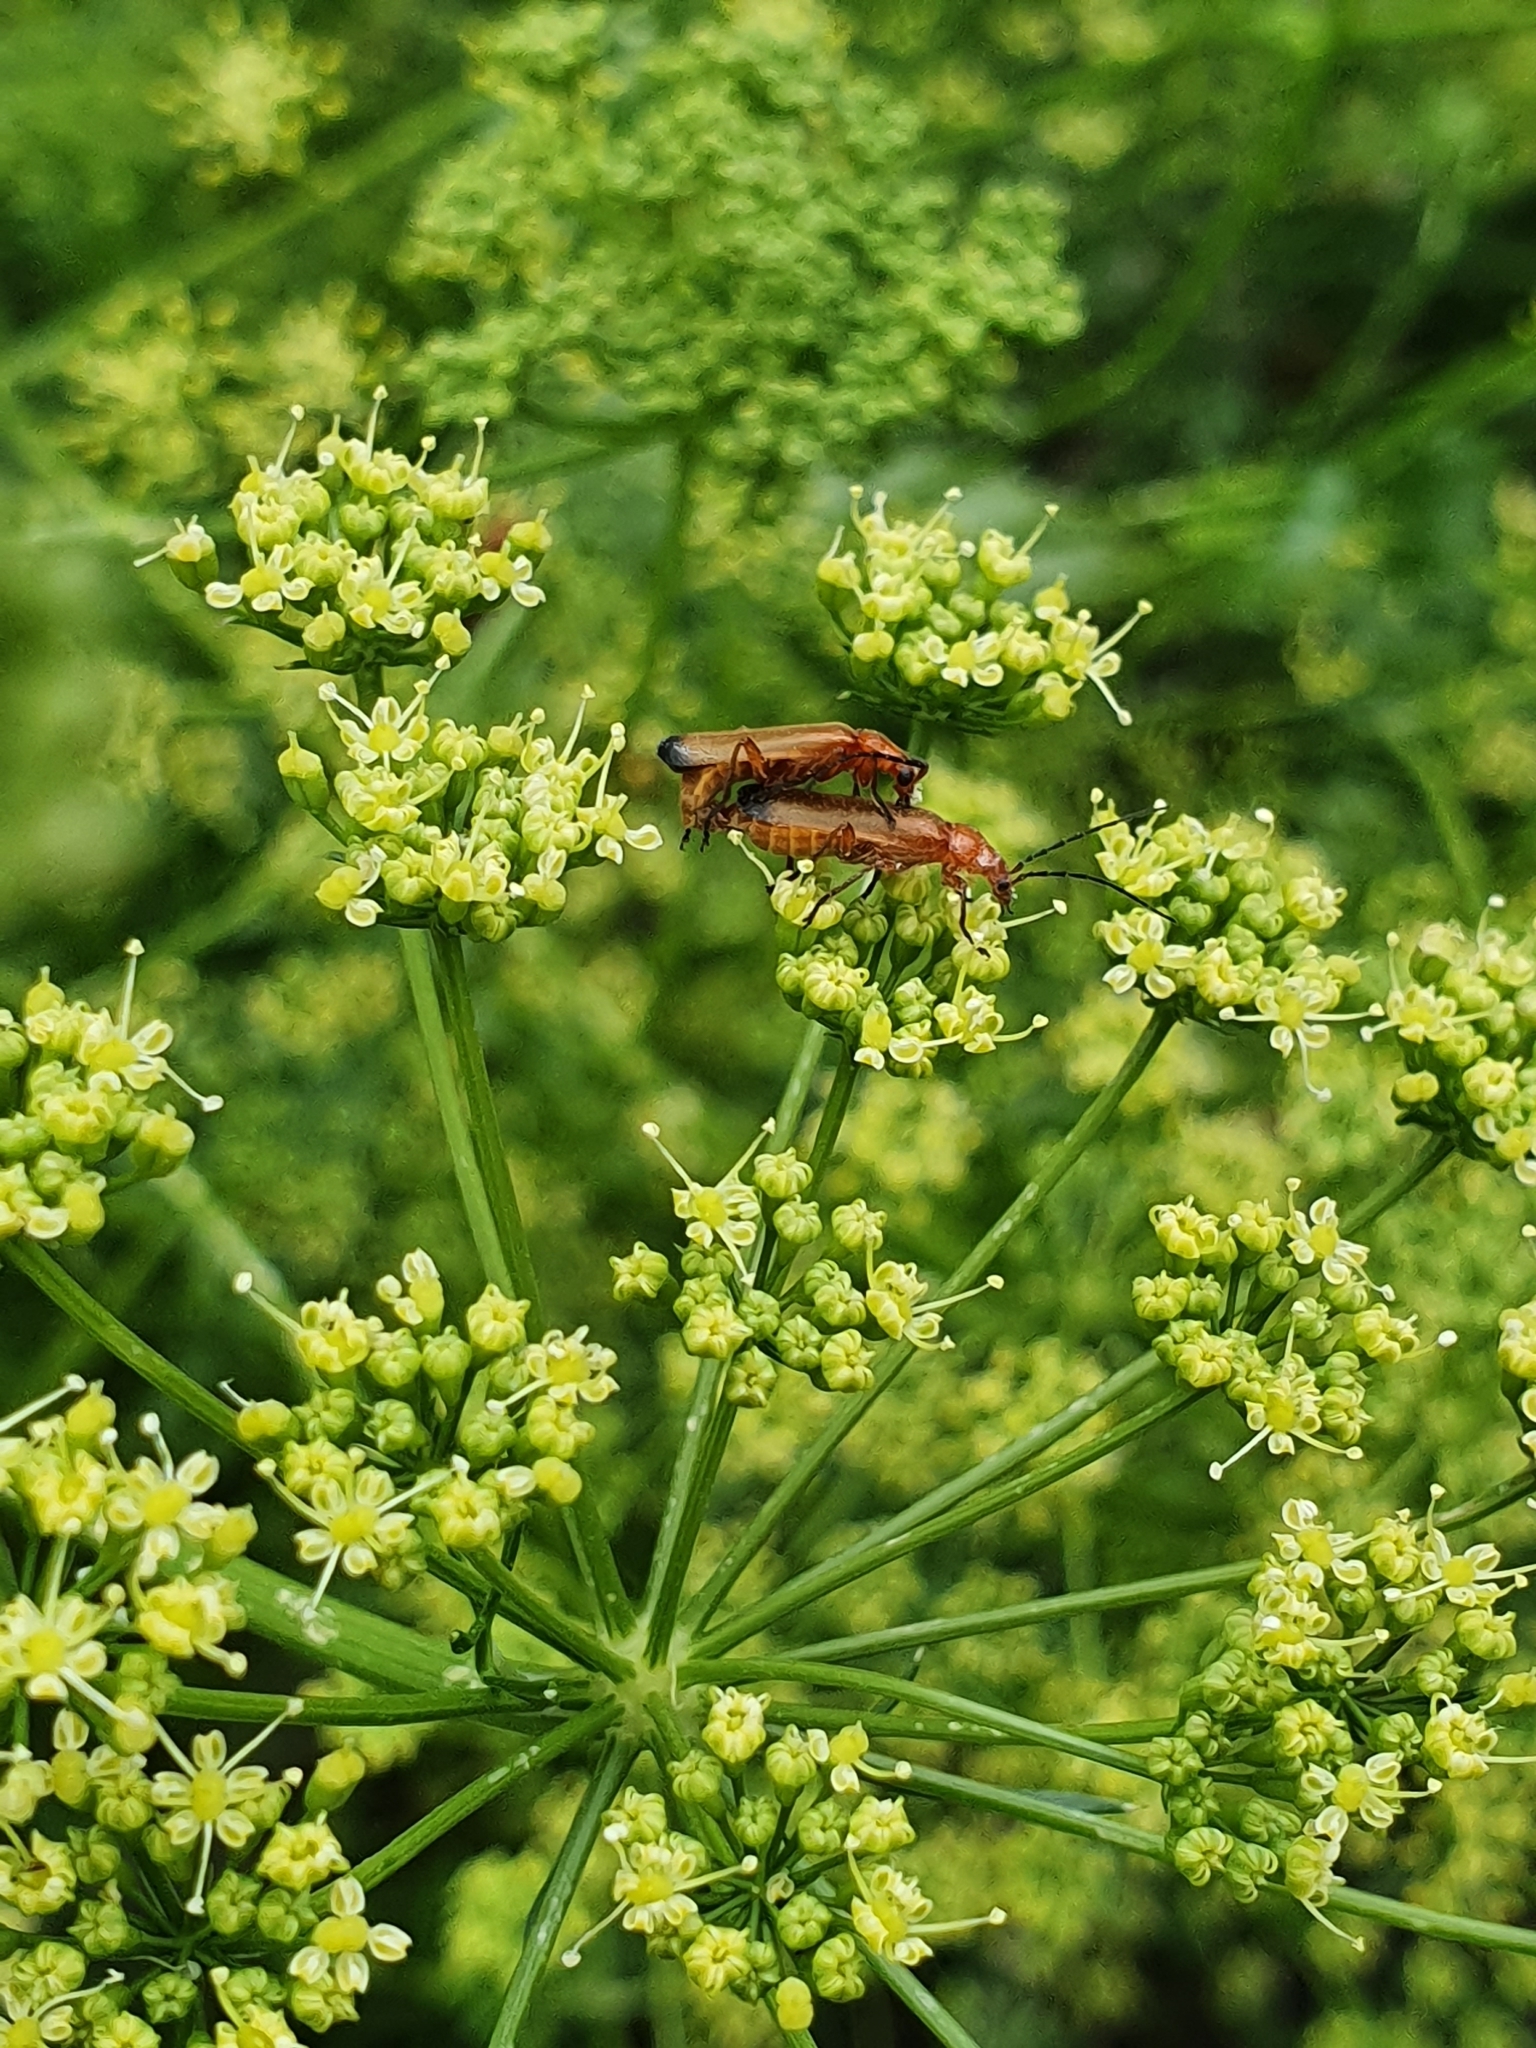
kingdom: Animalia
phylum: Arthropoda
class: Insecta
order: Coleoptera
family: Cantharidae
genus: Rhagonycha
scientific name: Rhagonycha fulva
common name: Common red soldier beetle
